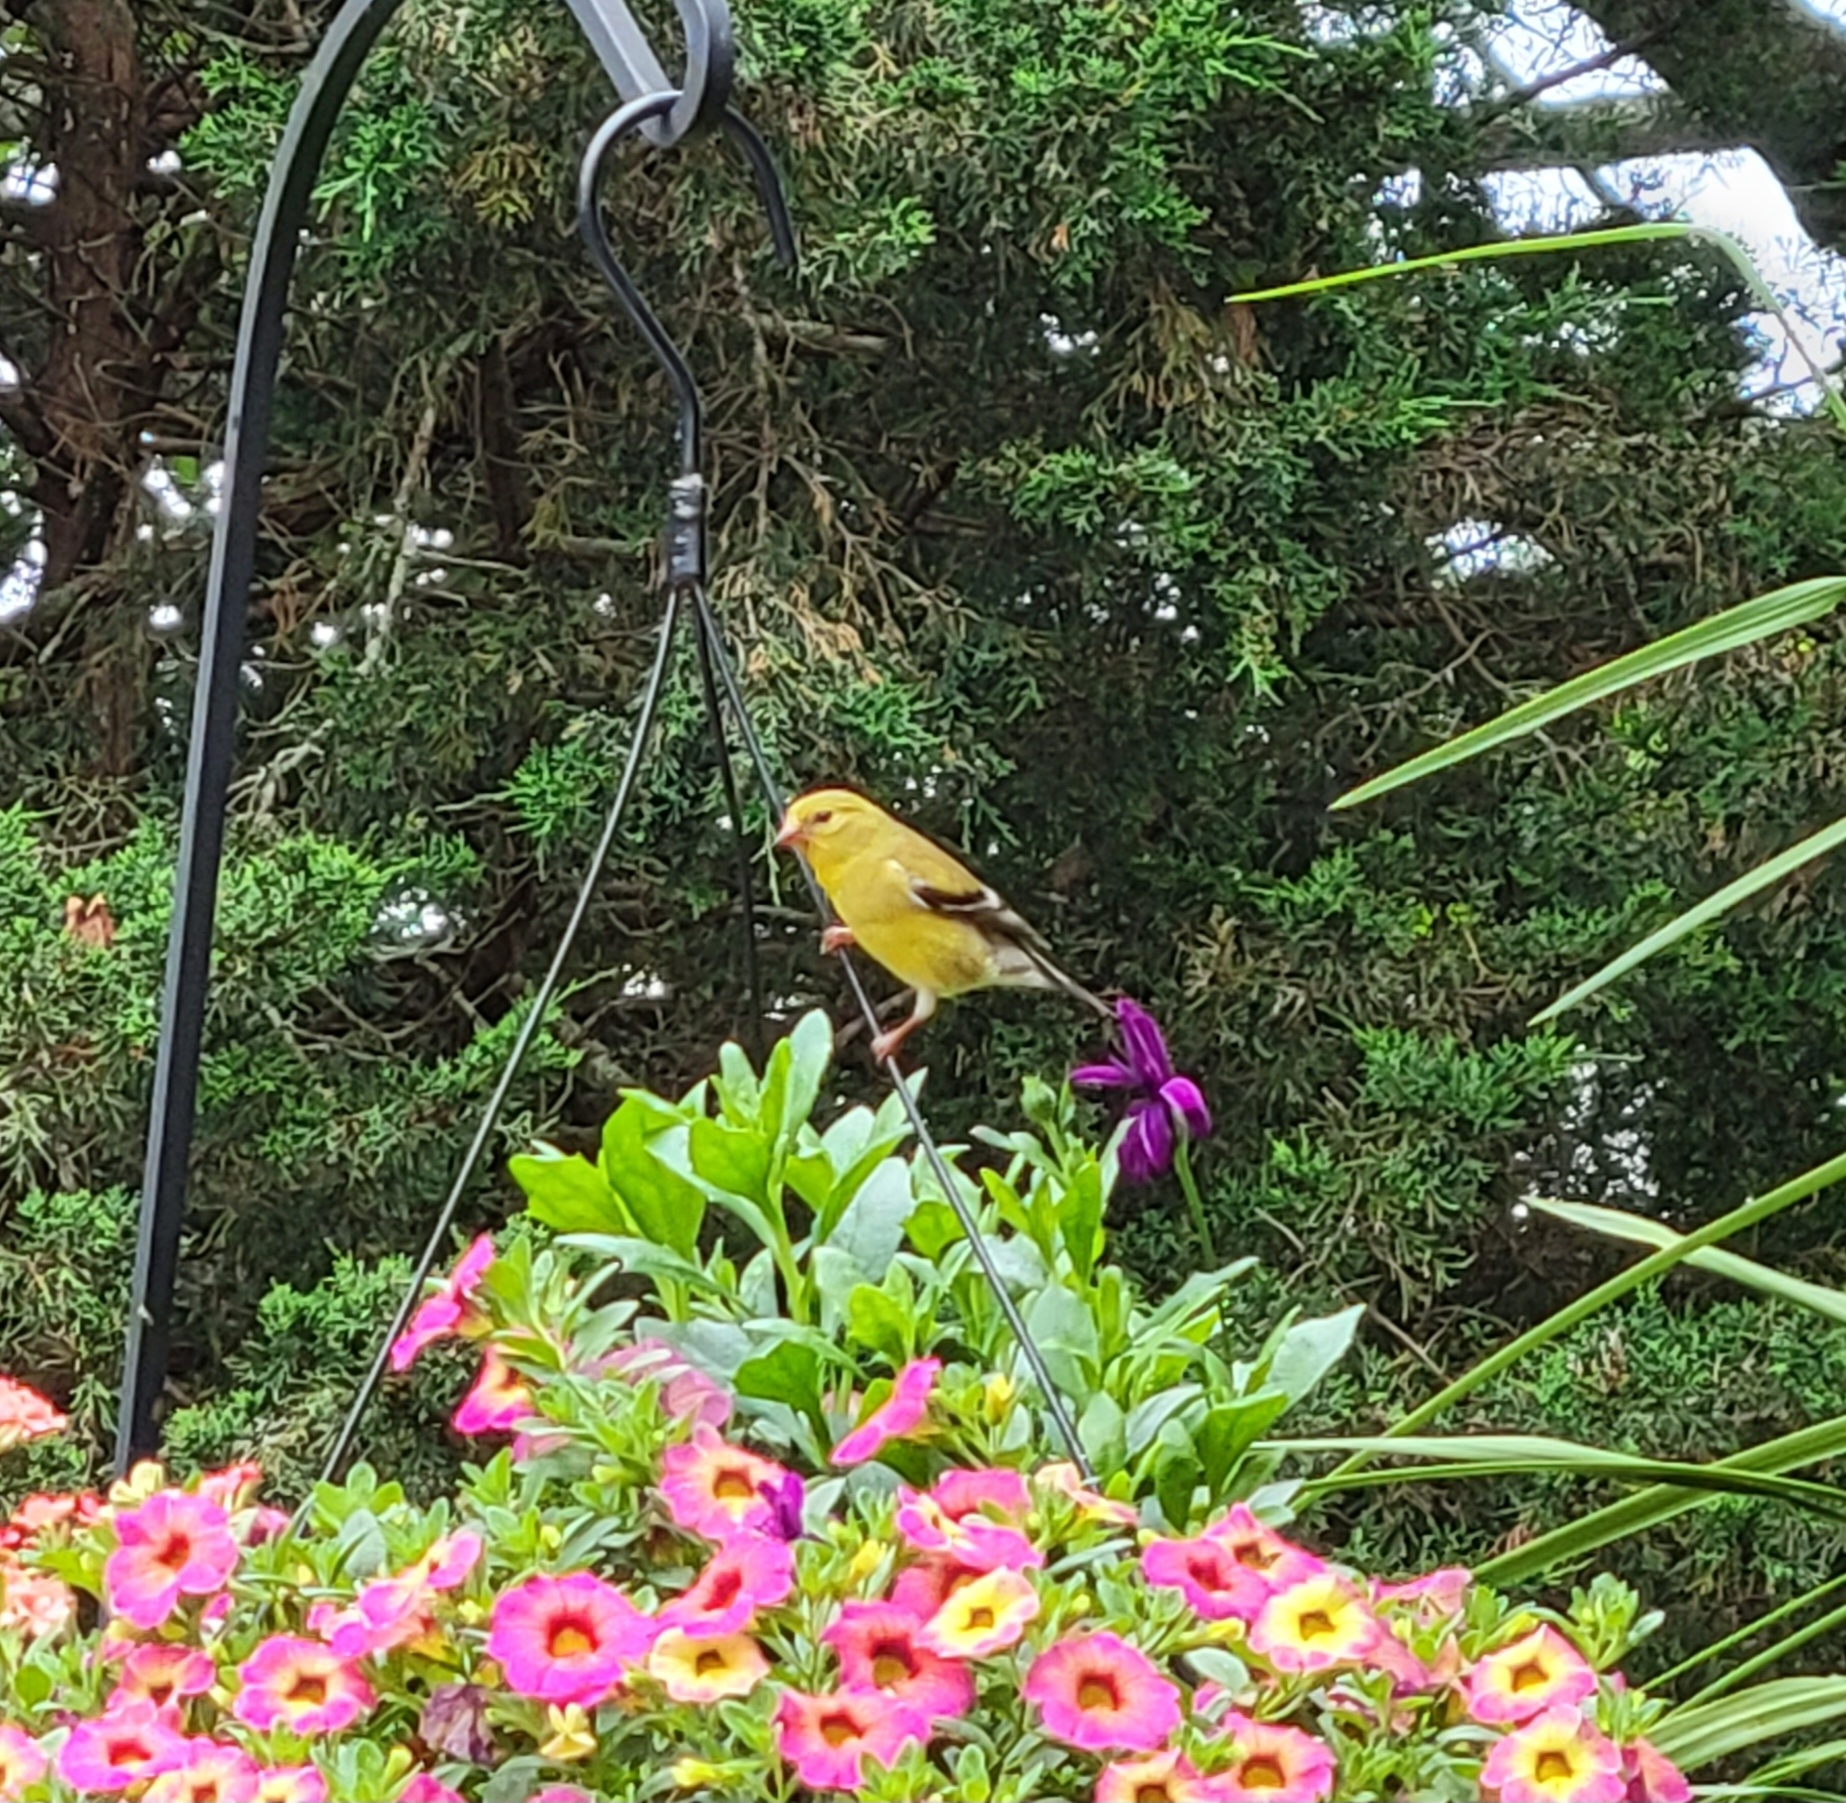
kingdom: Animalia
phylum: Chordata
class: Aves
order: Passeriformes
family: Fringillidae
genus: Spinus
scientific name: Spinus tristis
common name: American goldfinch
